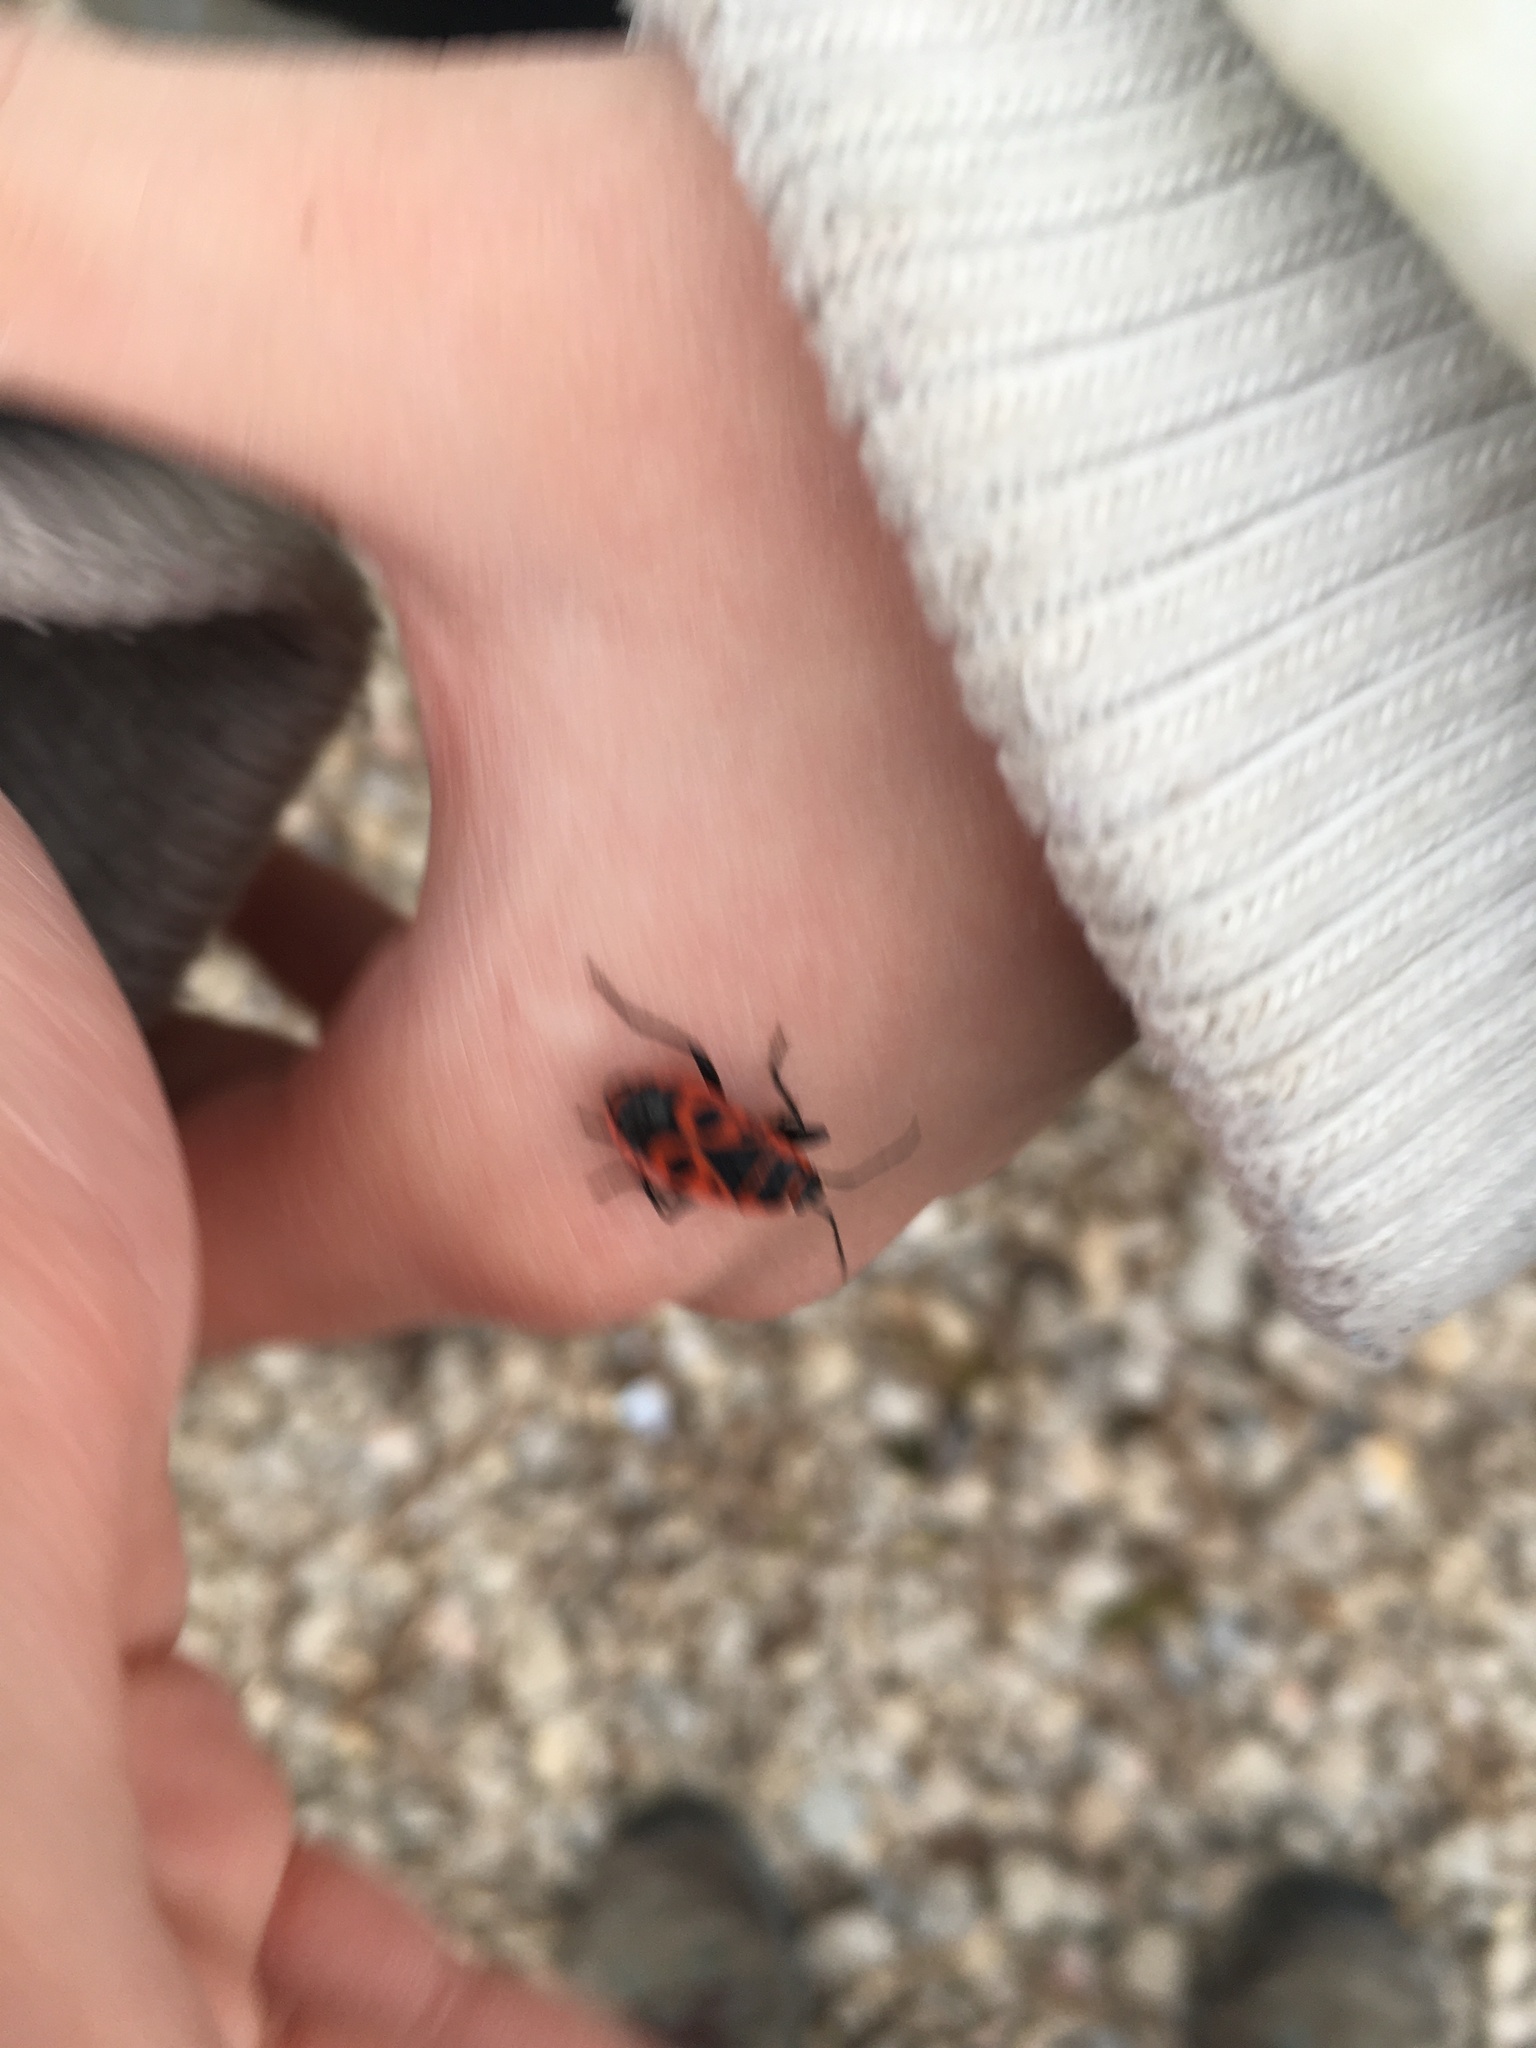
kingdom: Animalia
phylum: Arthropoda
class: Insecta
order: Hemiptera
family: Pyrrhocoridae
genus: Pyrrhocoris
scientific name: Pyrrhocoris apterus
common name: Firebug
